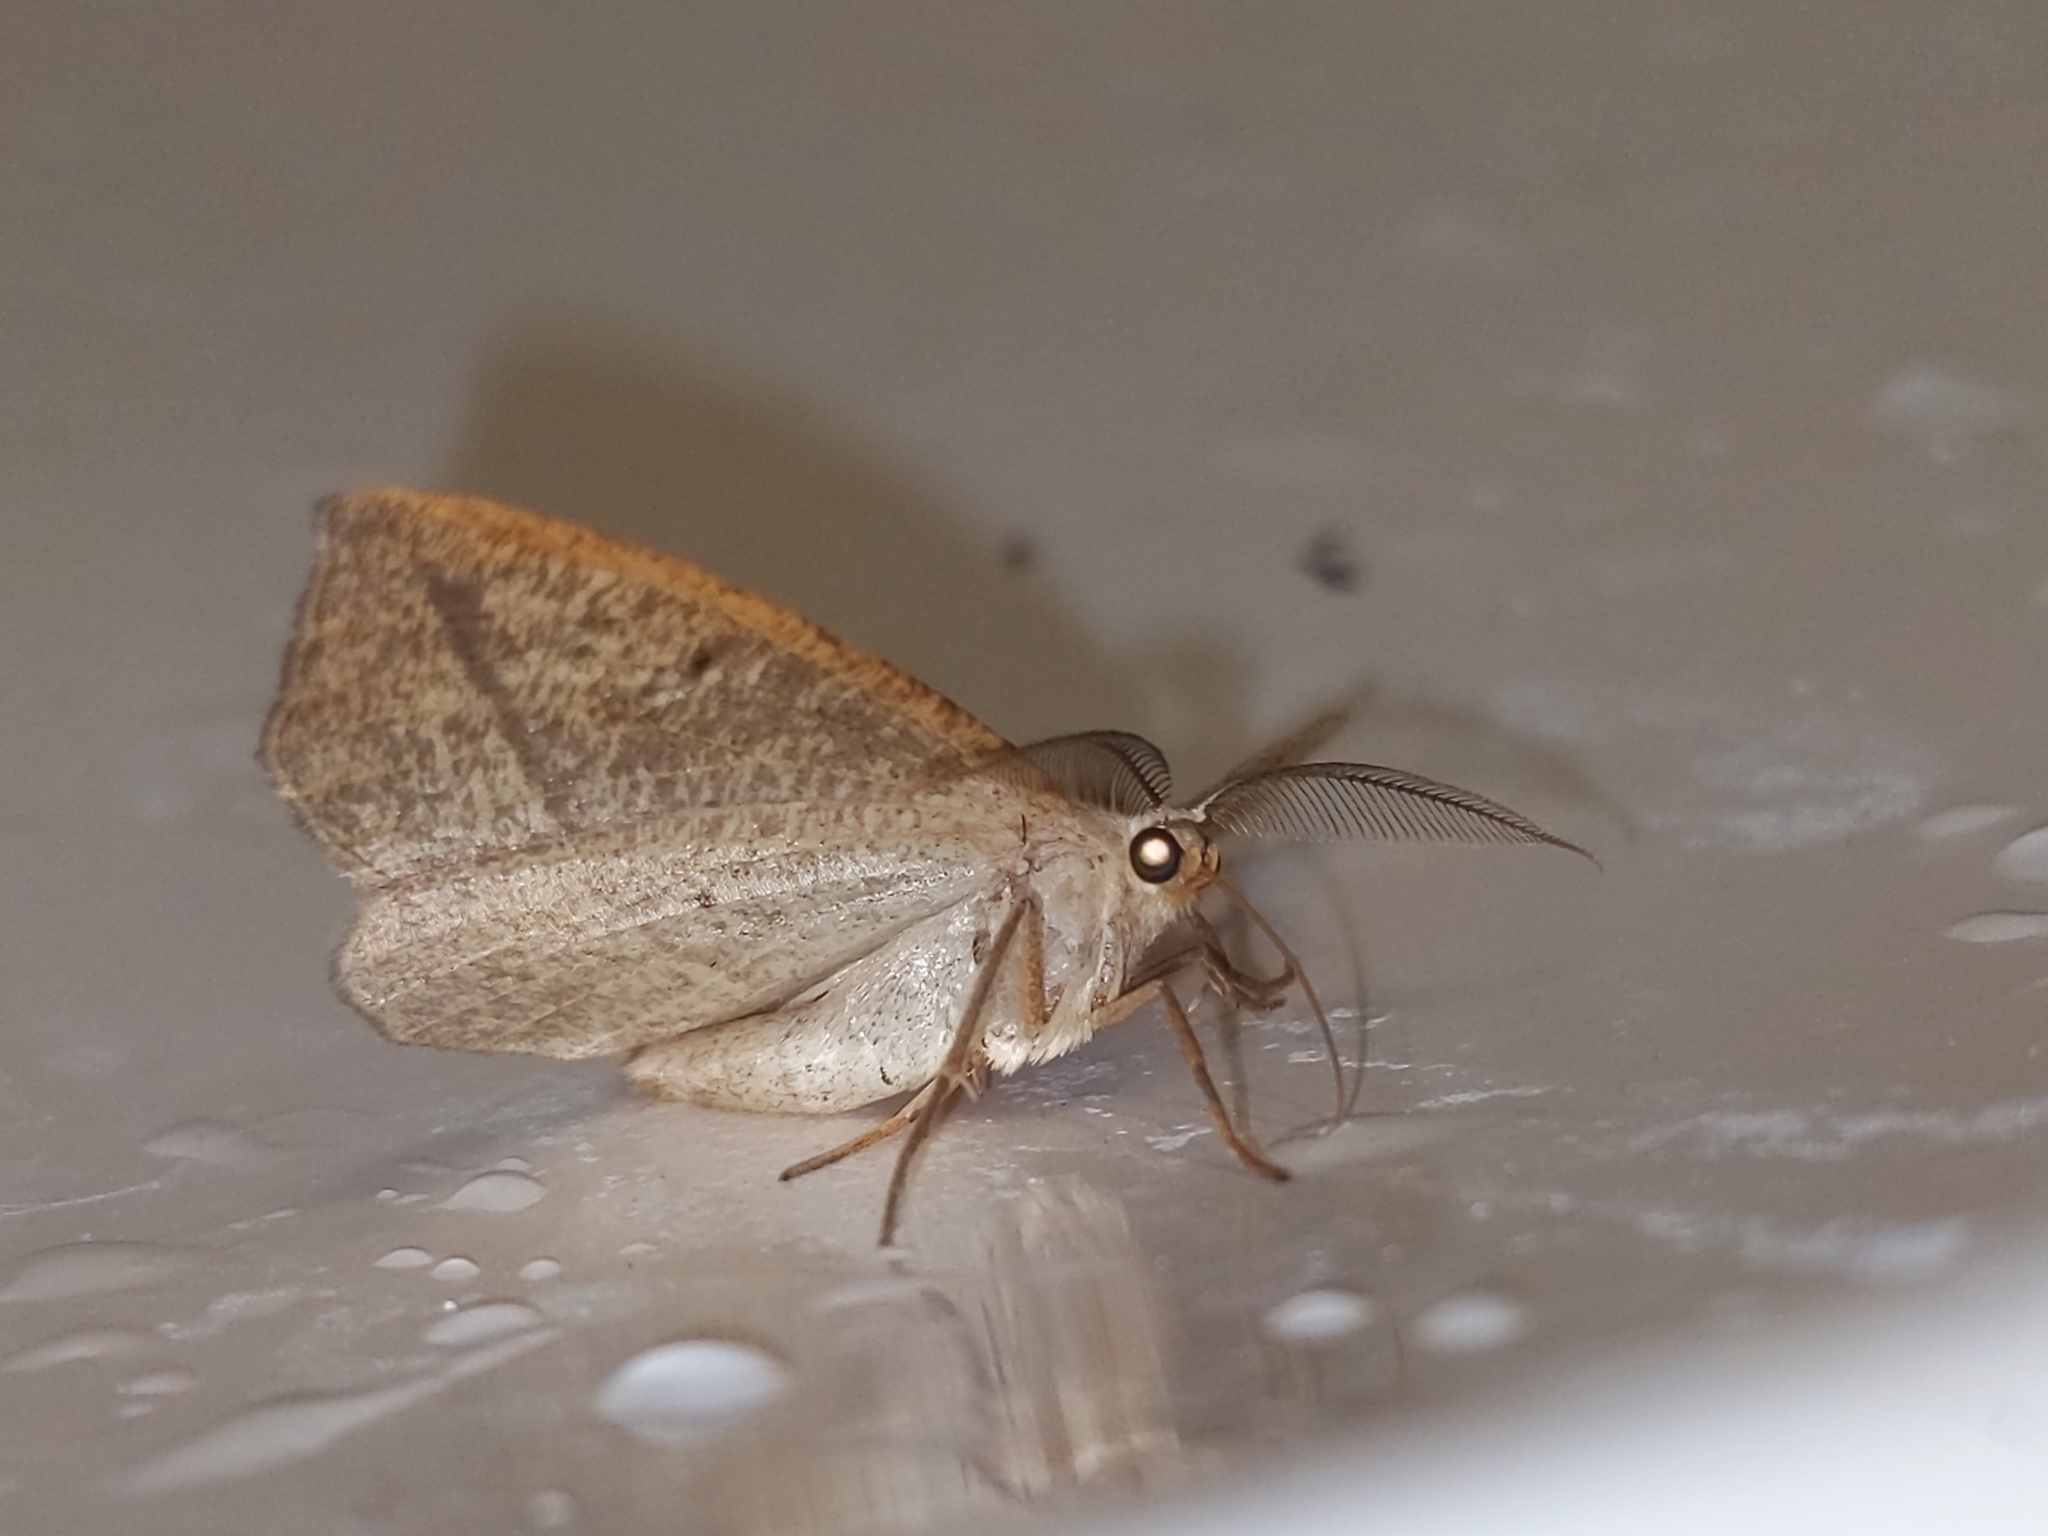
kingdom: Animalia
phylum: Arthropoda
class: Insecta
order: Lepidoptera
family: Geometridae
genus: Eusarca
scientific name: Eusarca confusaria
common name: Confused eusarca
